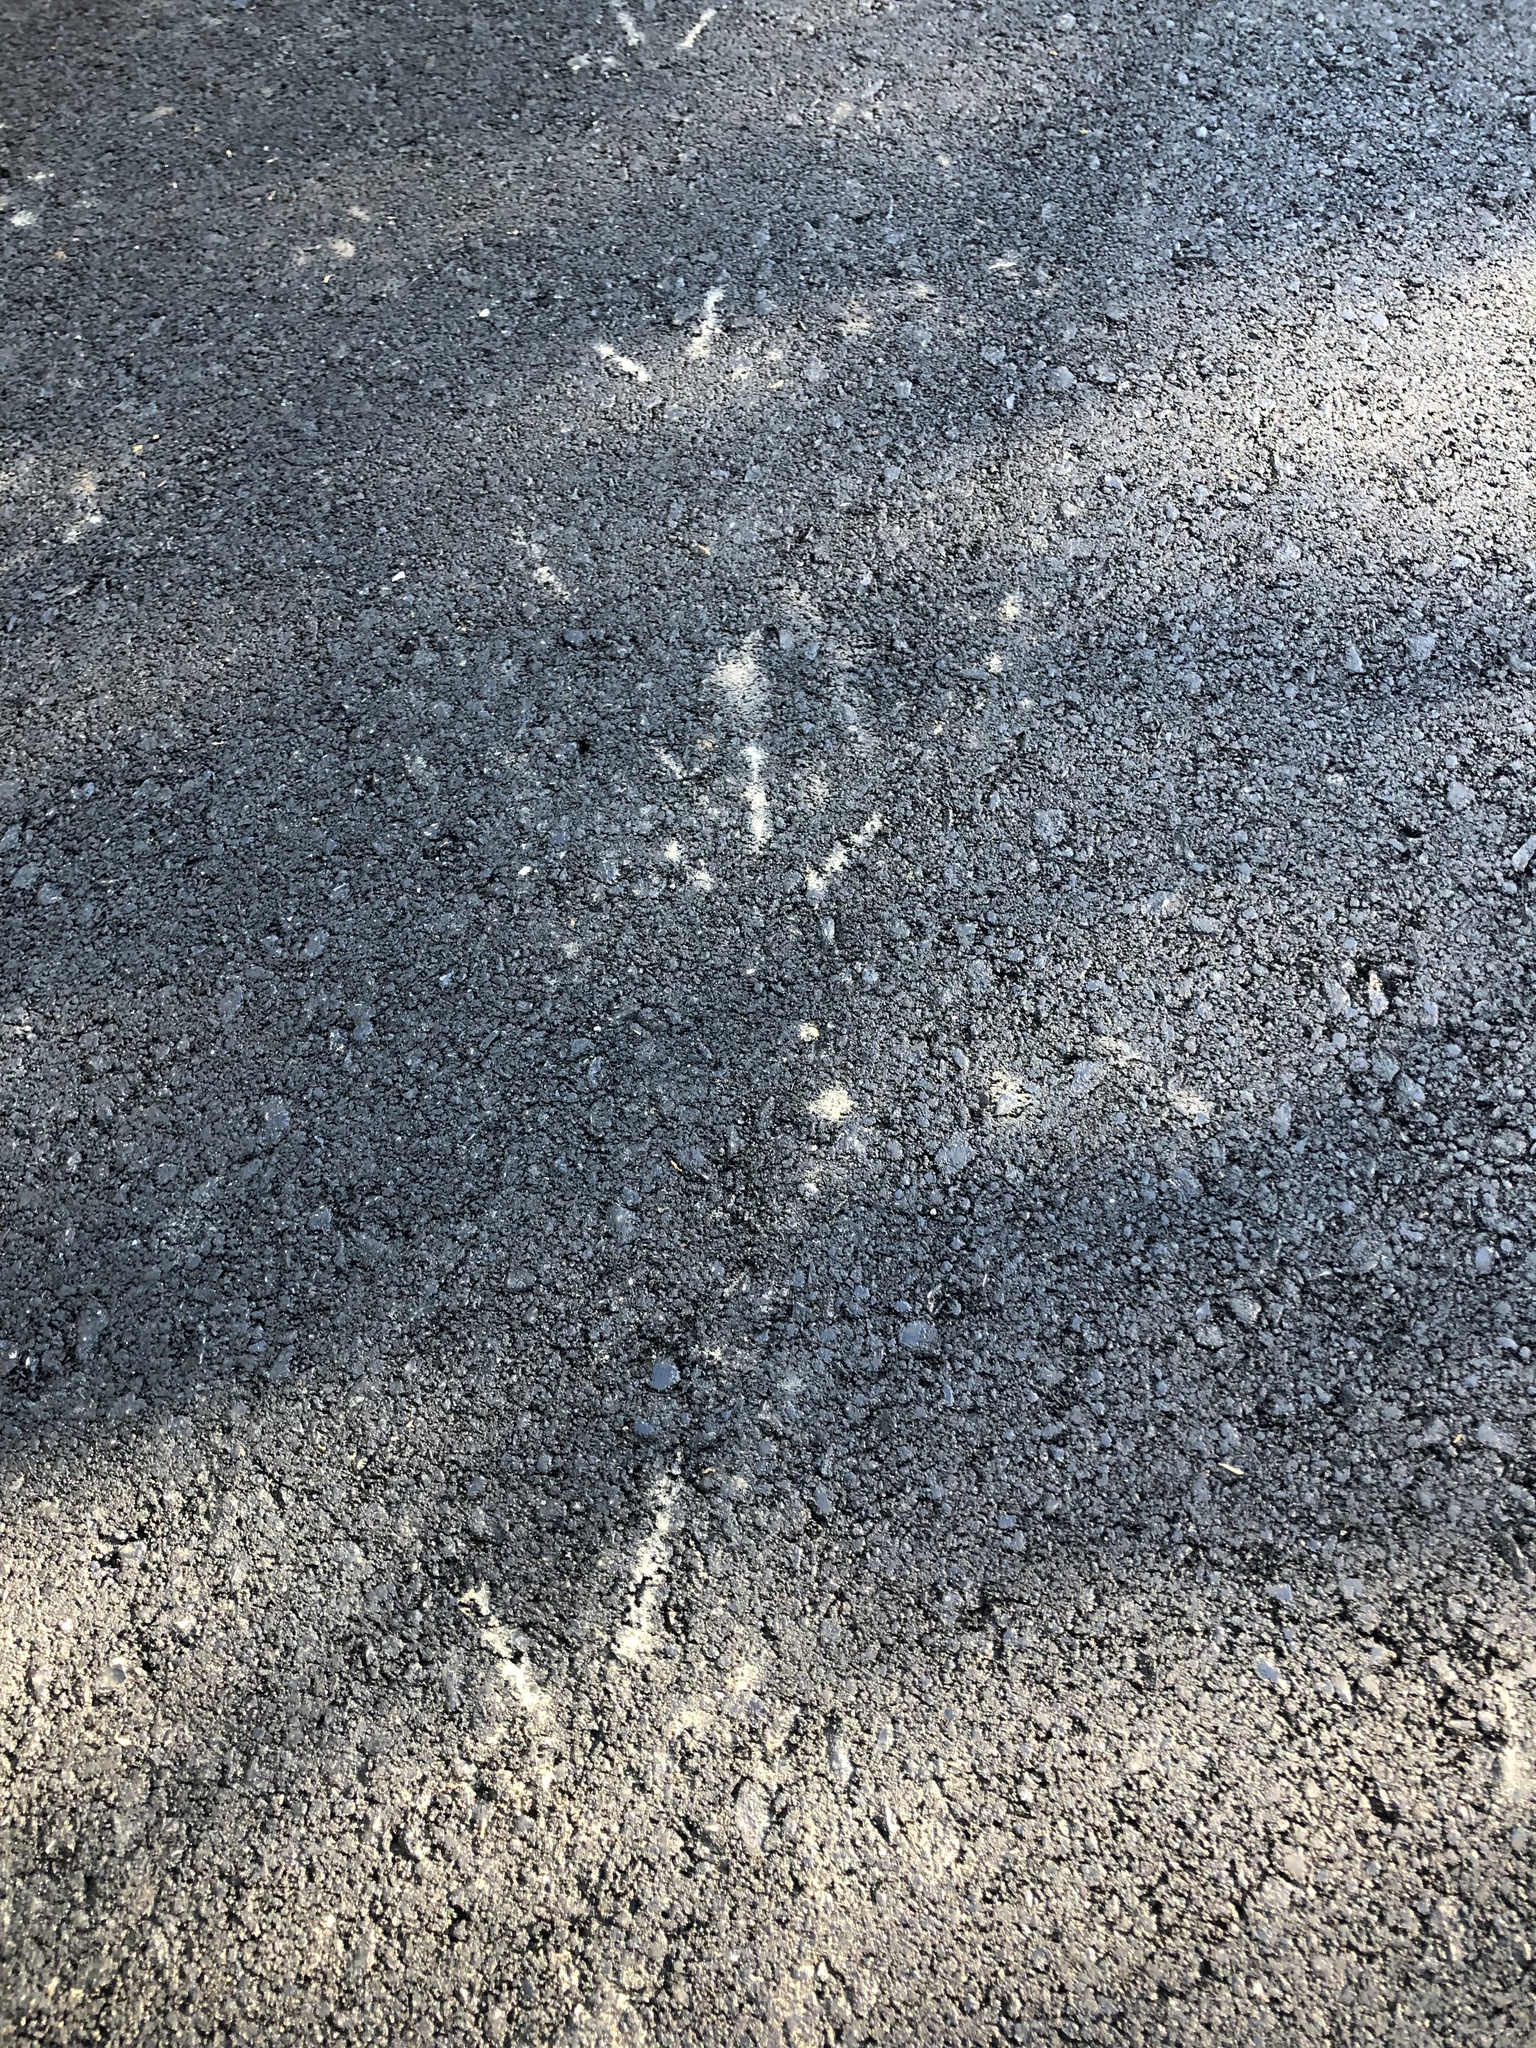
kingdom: Animalia
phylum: Chordata
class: Aves
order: Galliformes
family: Phasianidae
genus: Meleagris
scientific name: Meleagris gallopavo
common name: Wild turkey
